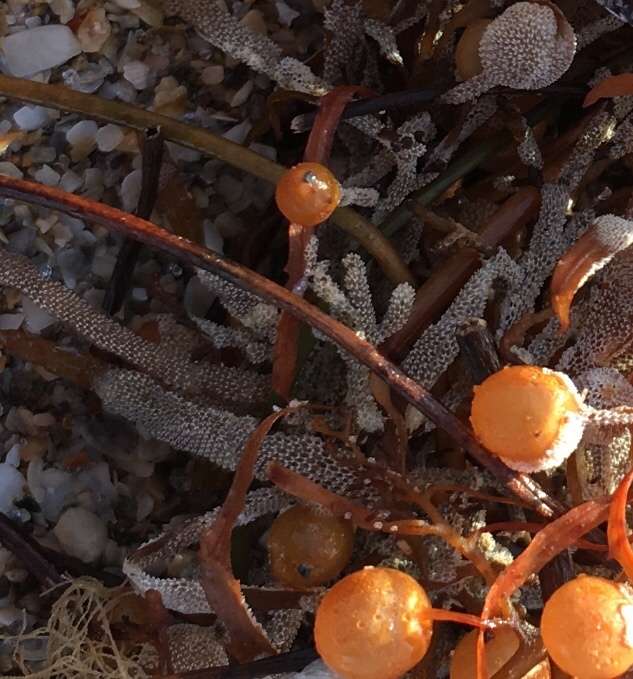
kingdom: Animalia
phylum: Bryozoa
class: Gymnolaemata
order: Cheilostomatida
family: Membraniporidae
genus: Jellyella
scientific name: Jellyella tuberculata
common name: Sargassum bryozoan
